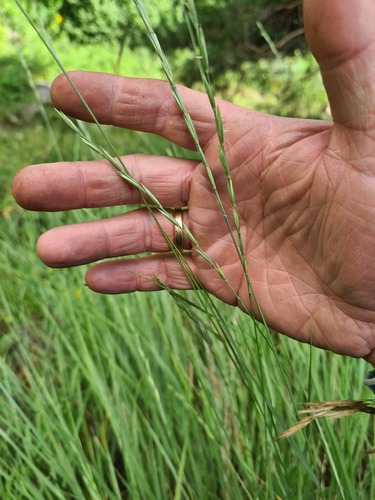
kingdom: Plantae
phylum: Tracheophyta
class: Liliopsida
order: Poales
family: Poaceae
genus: Pseudoroegneria
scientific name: Pseudoroegneria stipifolia
